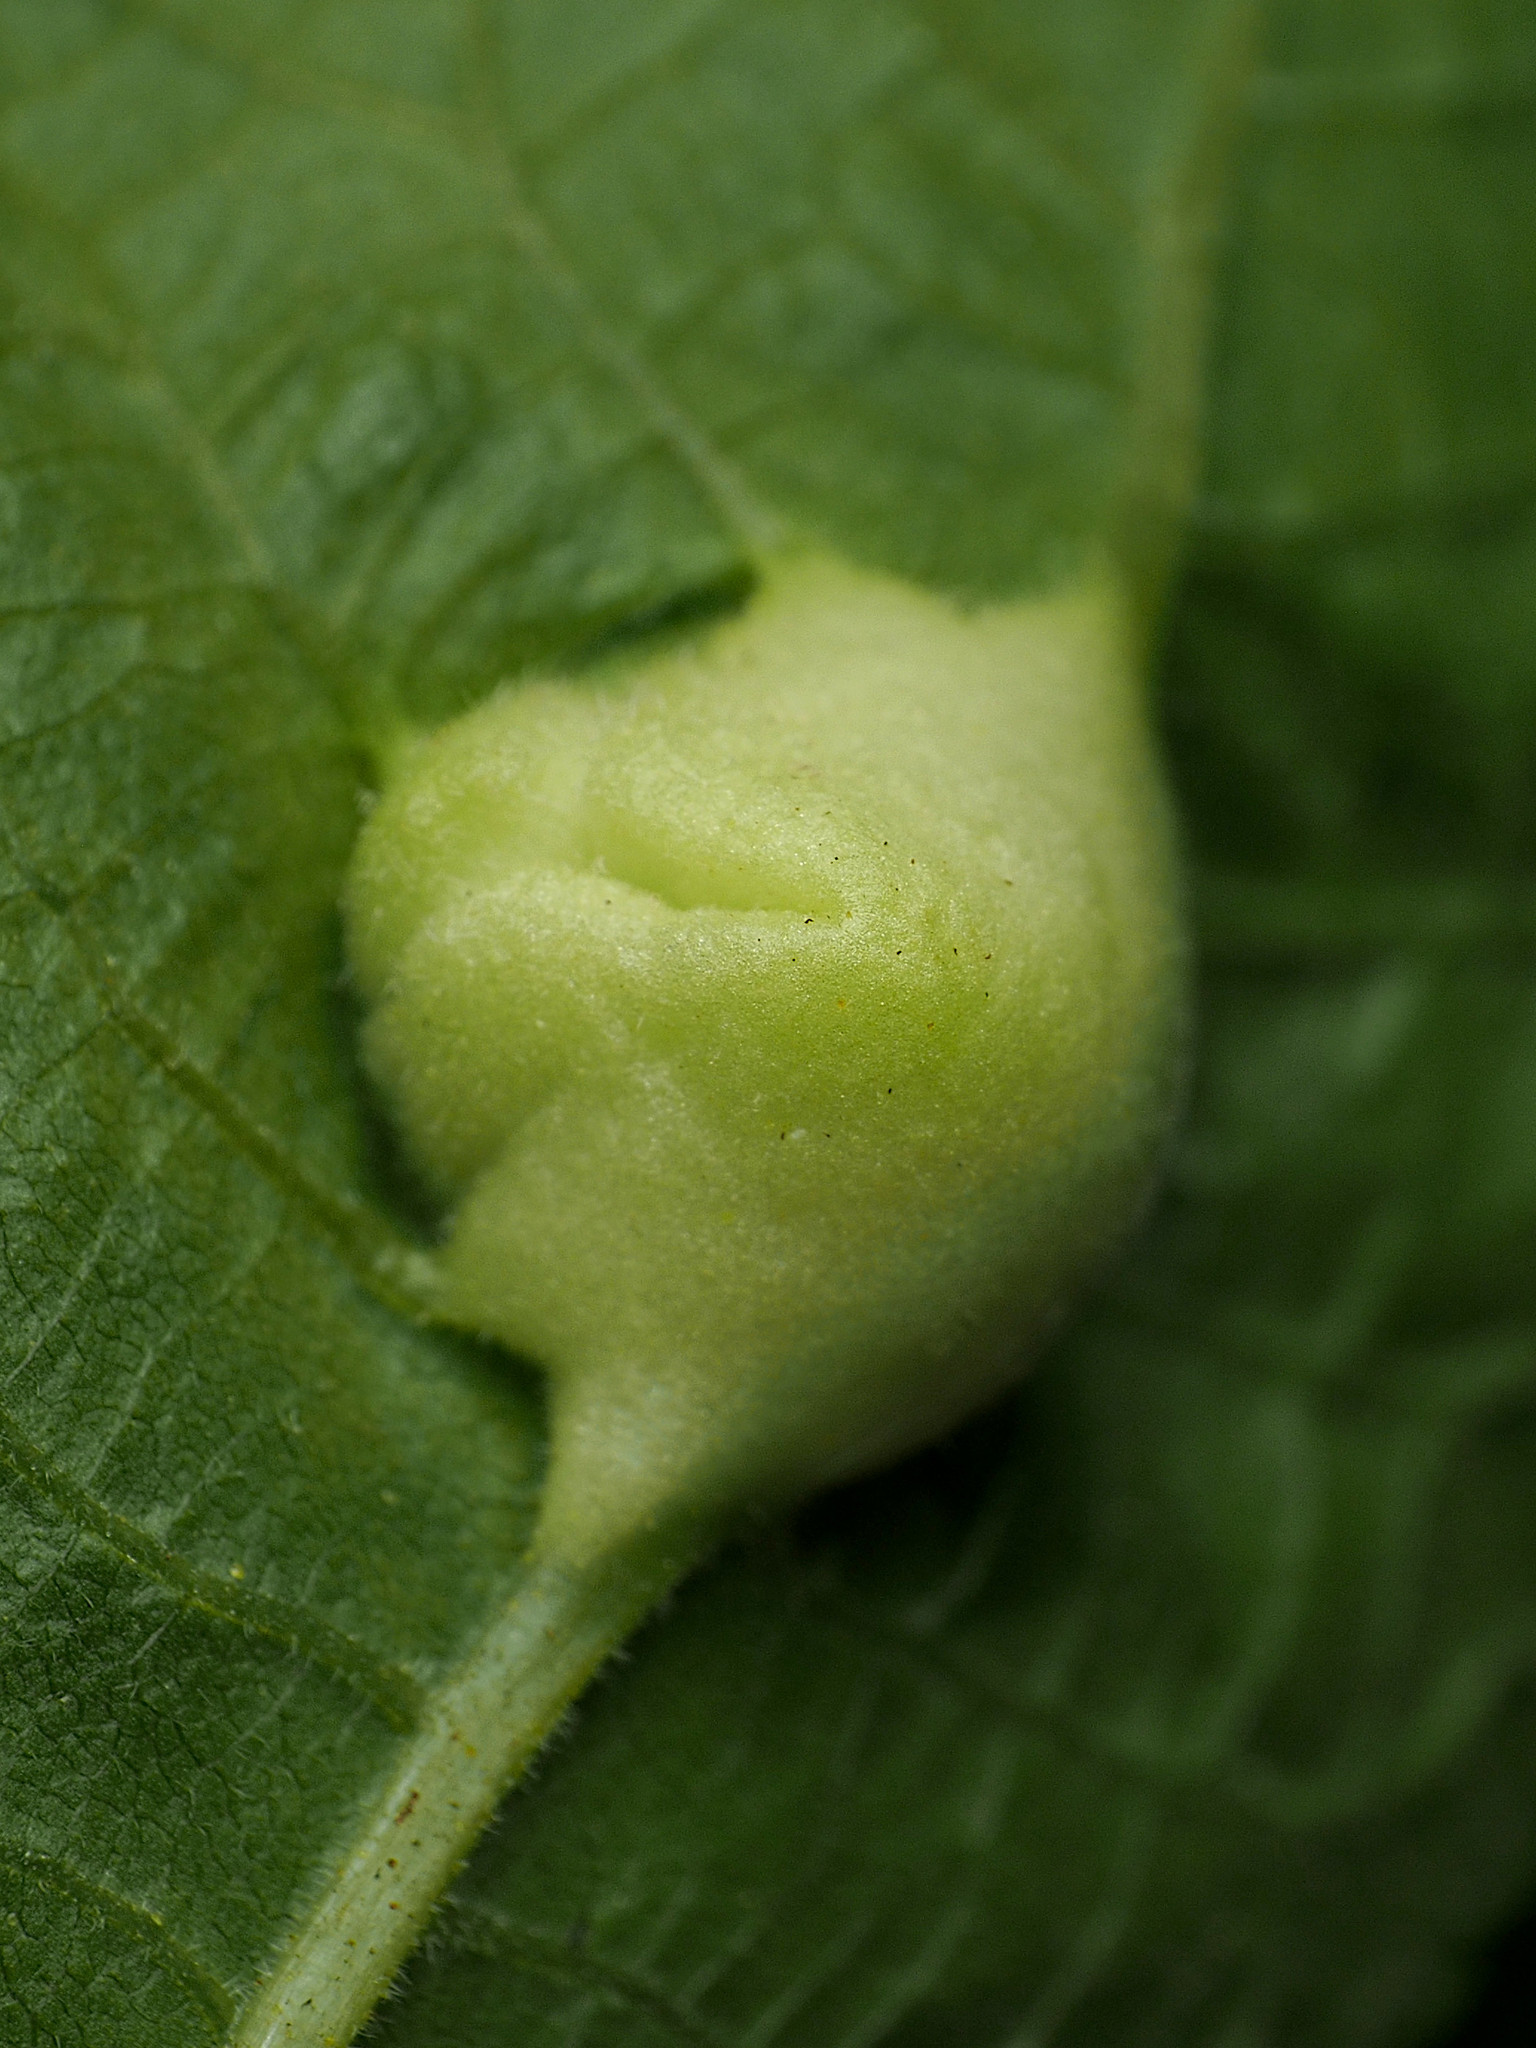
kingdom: Animalia
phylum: Arthropoda
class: Insecta
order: Hemiptera
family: Phylloxeridae
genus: Phylloxera
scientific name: Phylloxera
